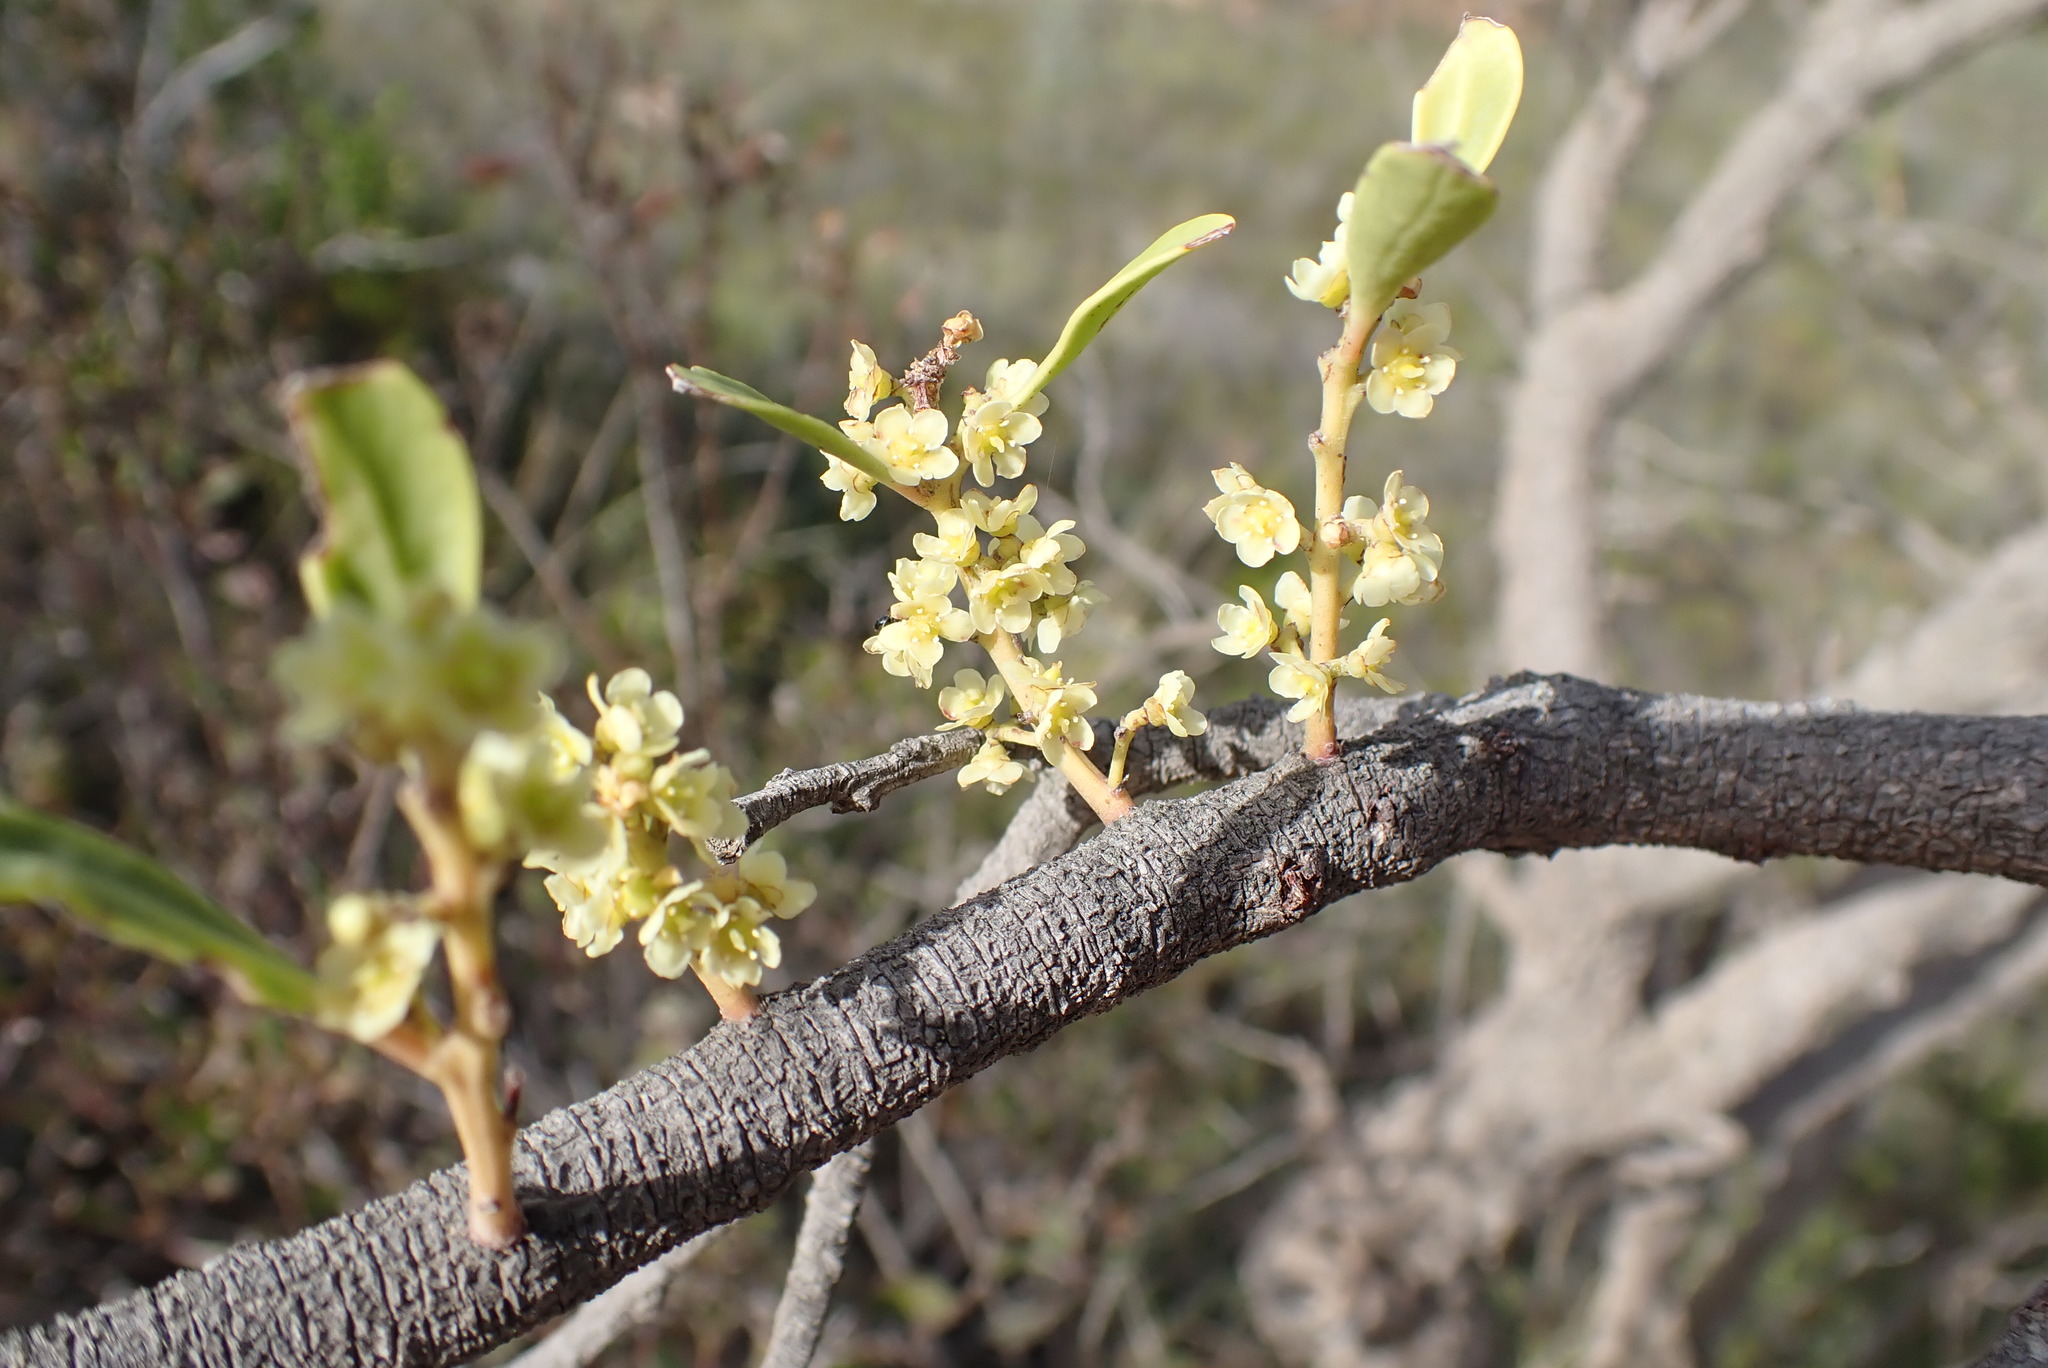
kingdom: Plantae
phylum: Tracheophyta
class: Magnoliopsida
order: Celastrales
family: Celastraceae
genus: Gymnosporia
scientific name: Gymnosporia laurina
